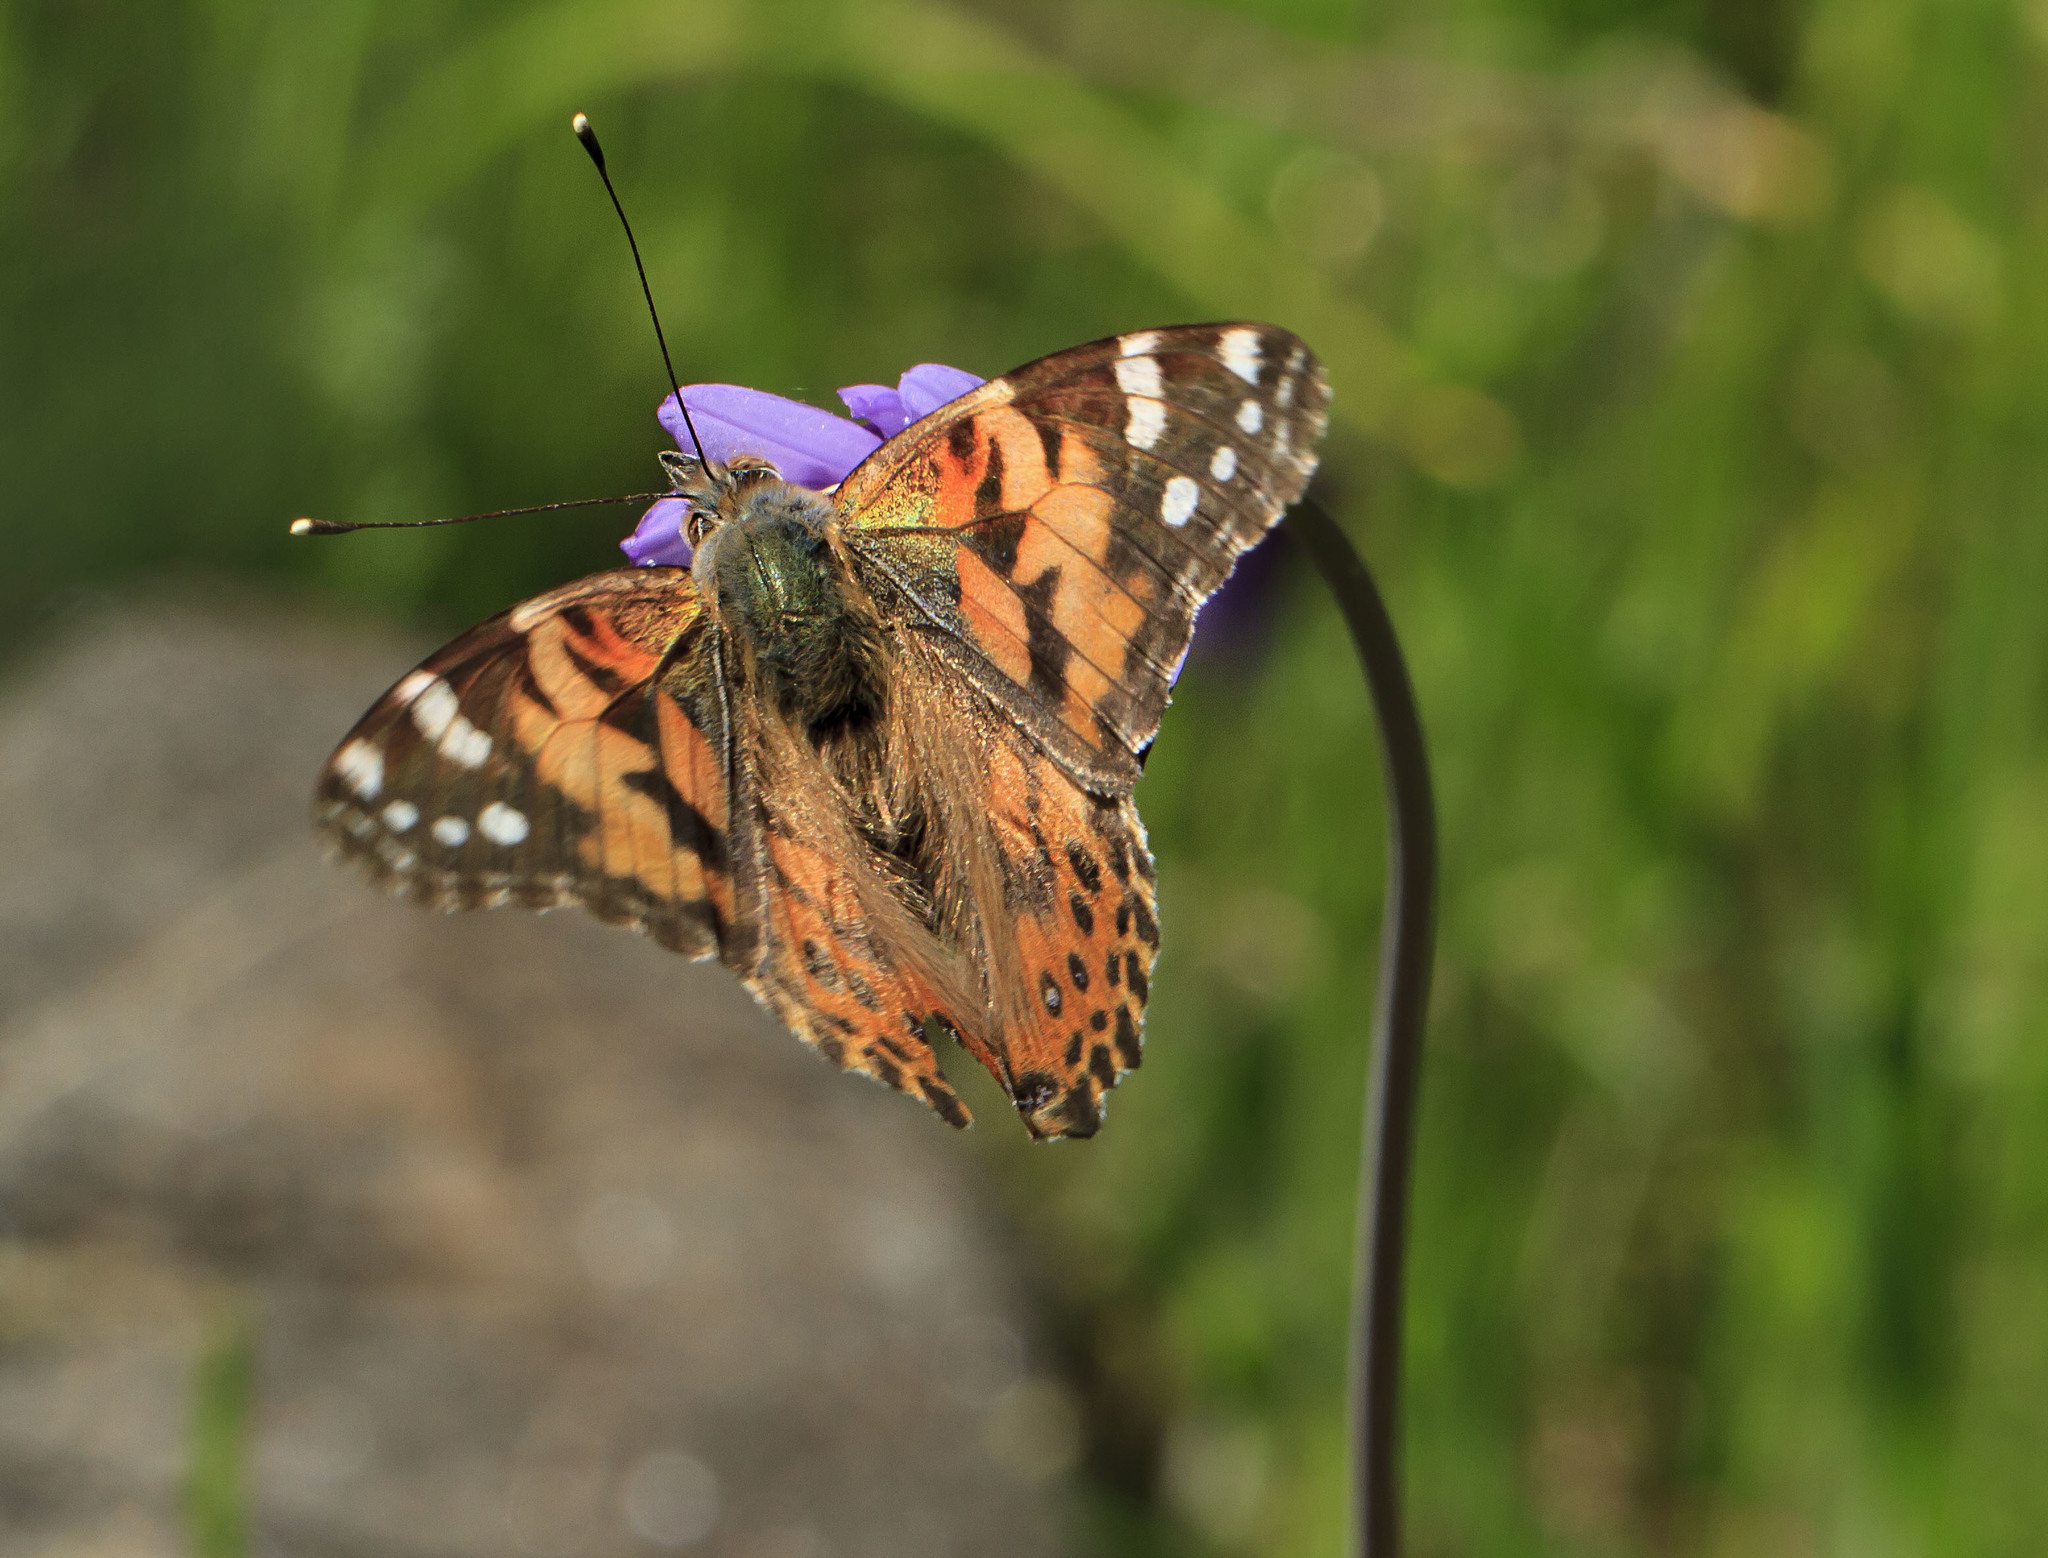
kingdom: Animalia
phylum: Arthropoda
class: Insecta
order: Lepidoptera
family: Nymphalidae
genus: Vanessa
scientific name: Vanessa cardui
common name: Painted lady
